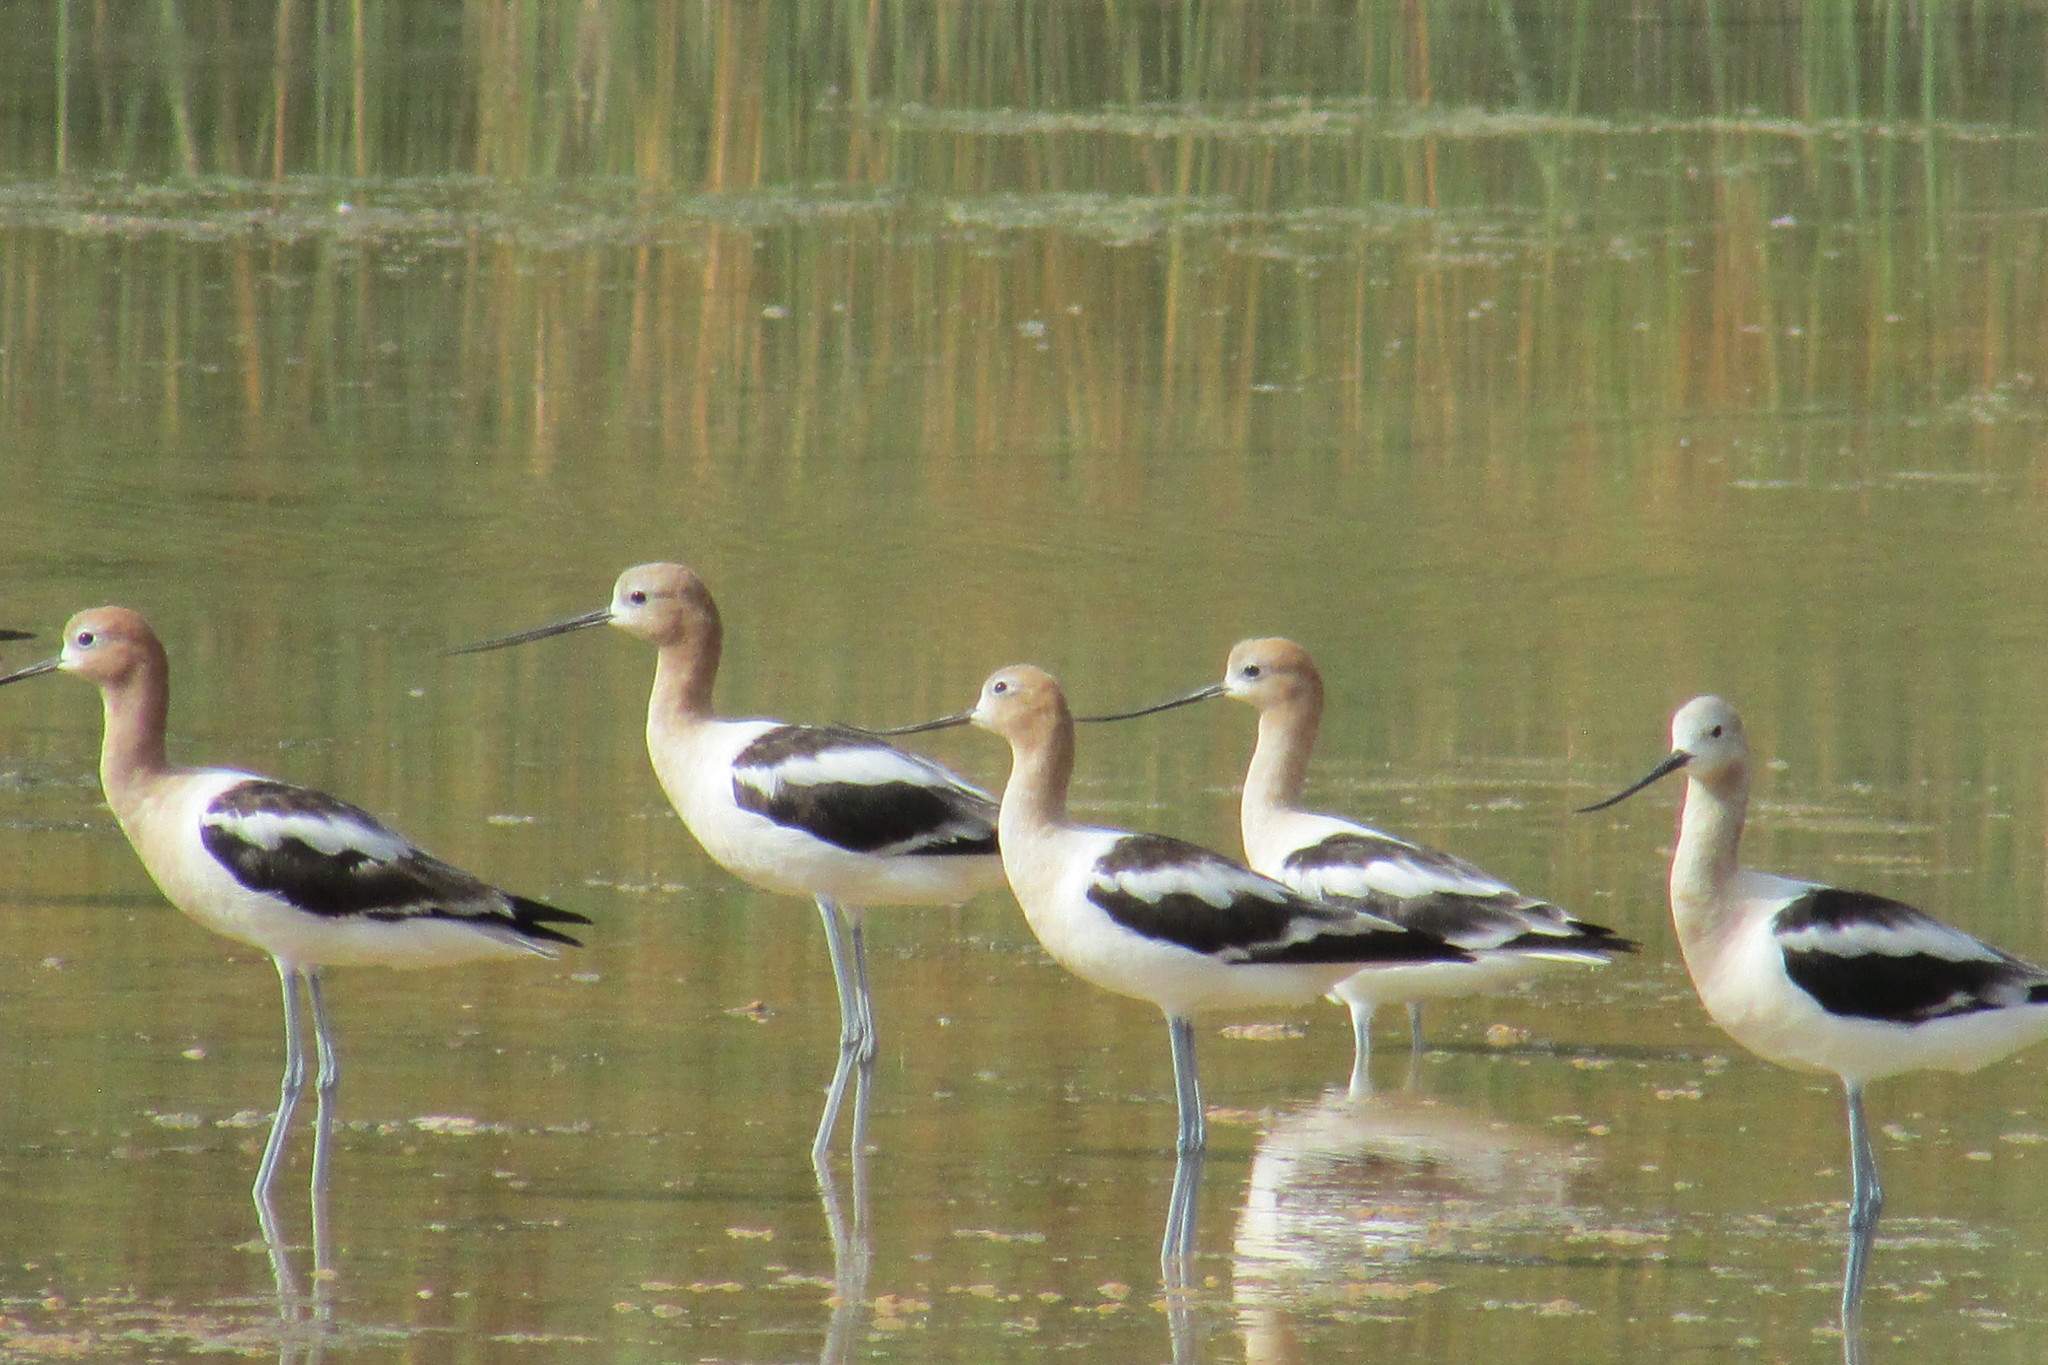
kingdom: Animalia
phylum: Chordata
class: Aves
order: Charadriiformes
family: Recurvirostridae
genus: Recurvirostra
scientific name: Recurvirostra americana
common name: American avocet
